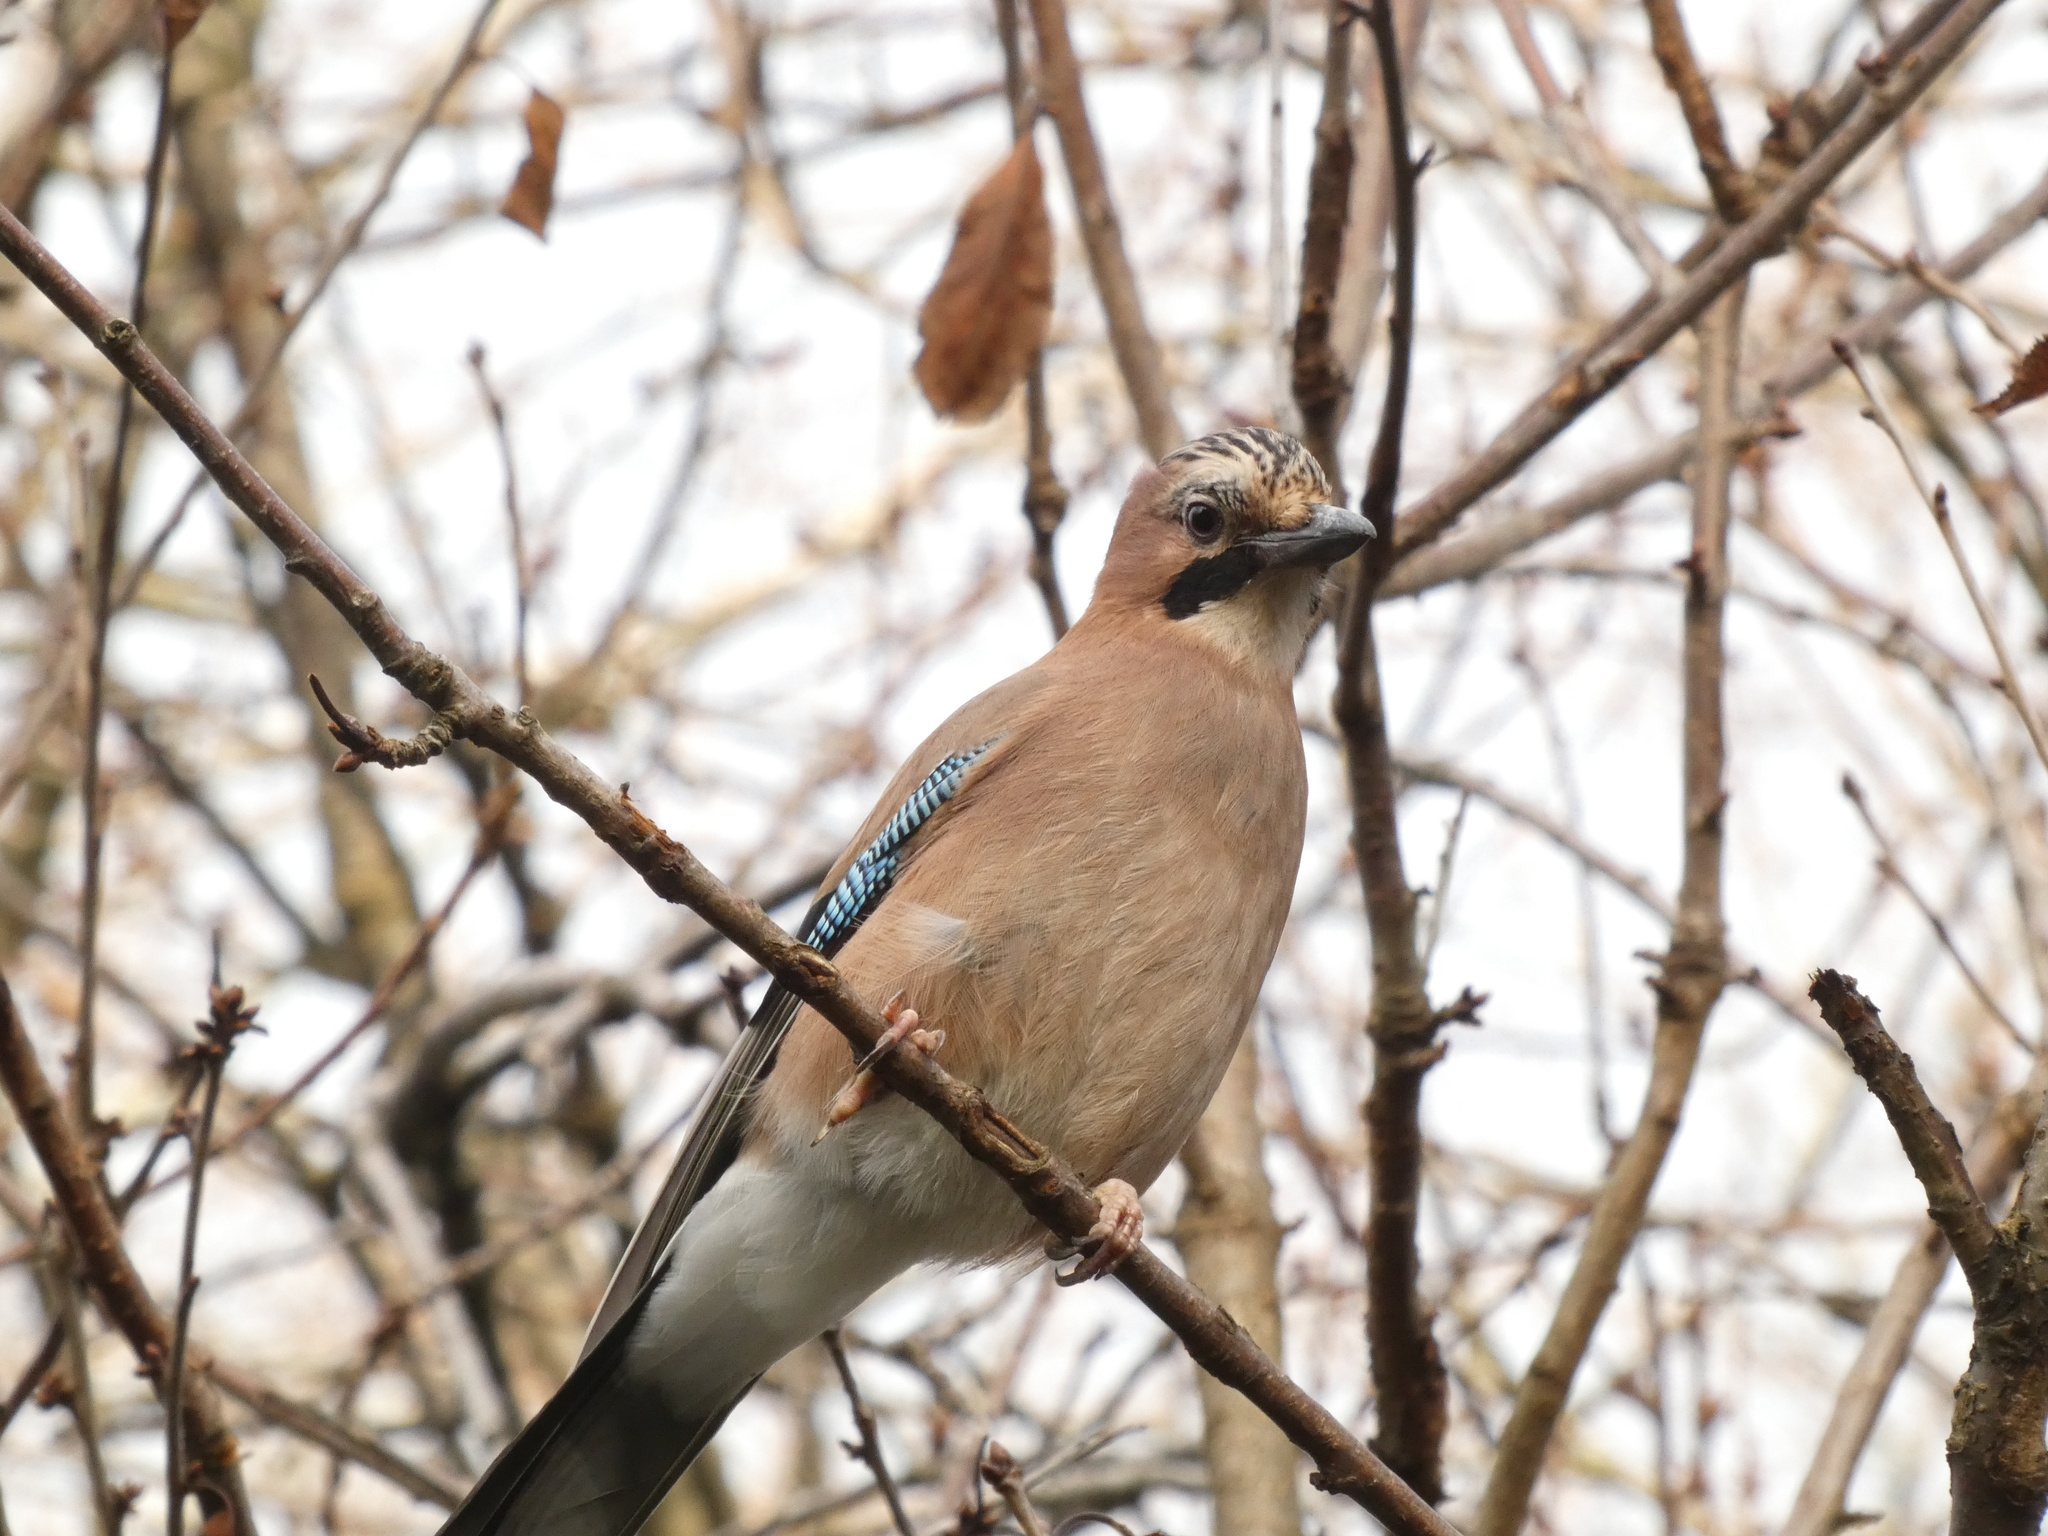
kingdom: Animalia
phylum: Chordata
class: Aves
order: Passeriformes
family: Corvidae
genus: Garrulus
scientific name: Garrulus glandarius
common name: Eurasian jay
